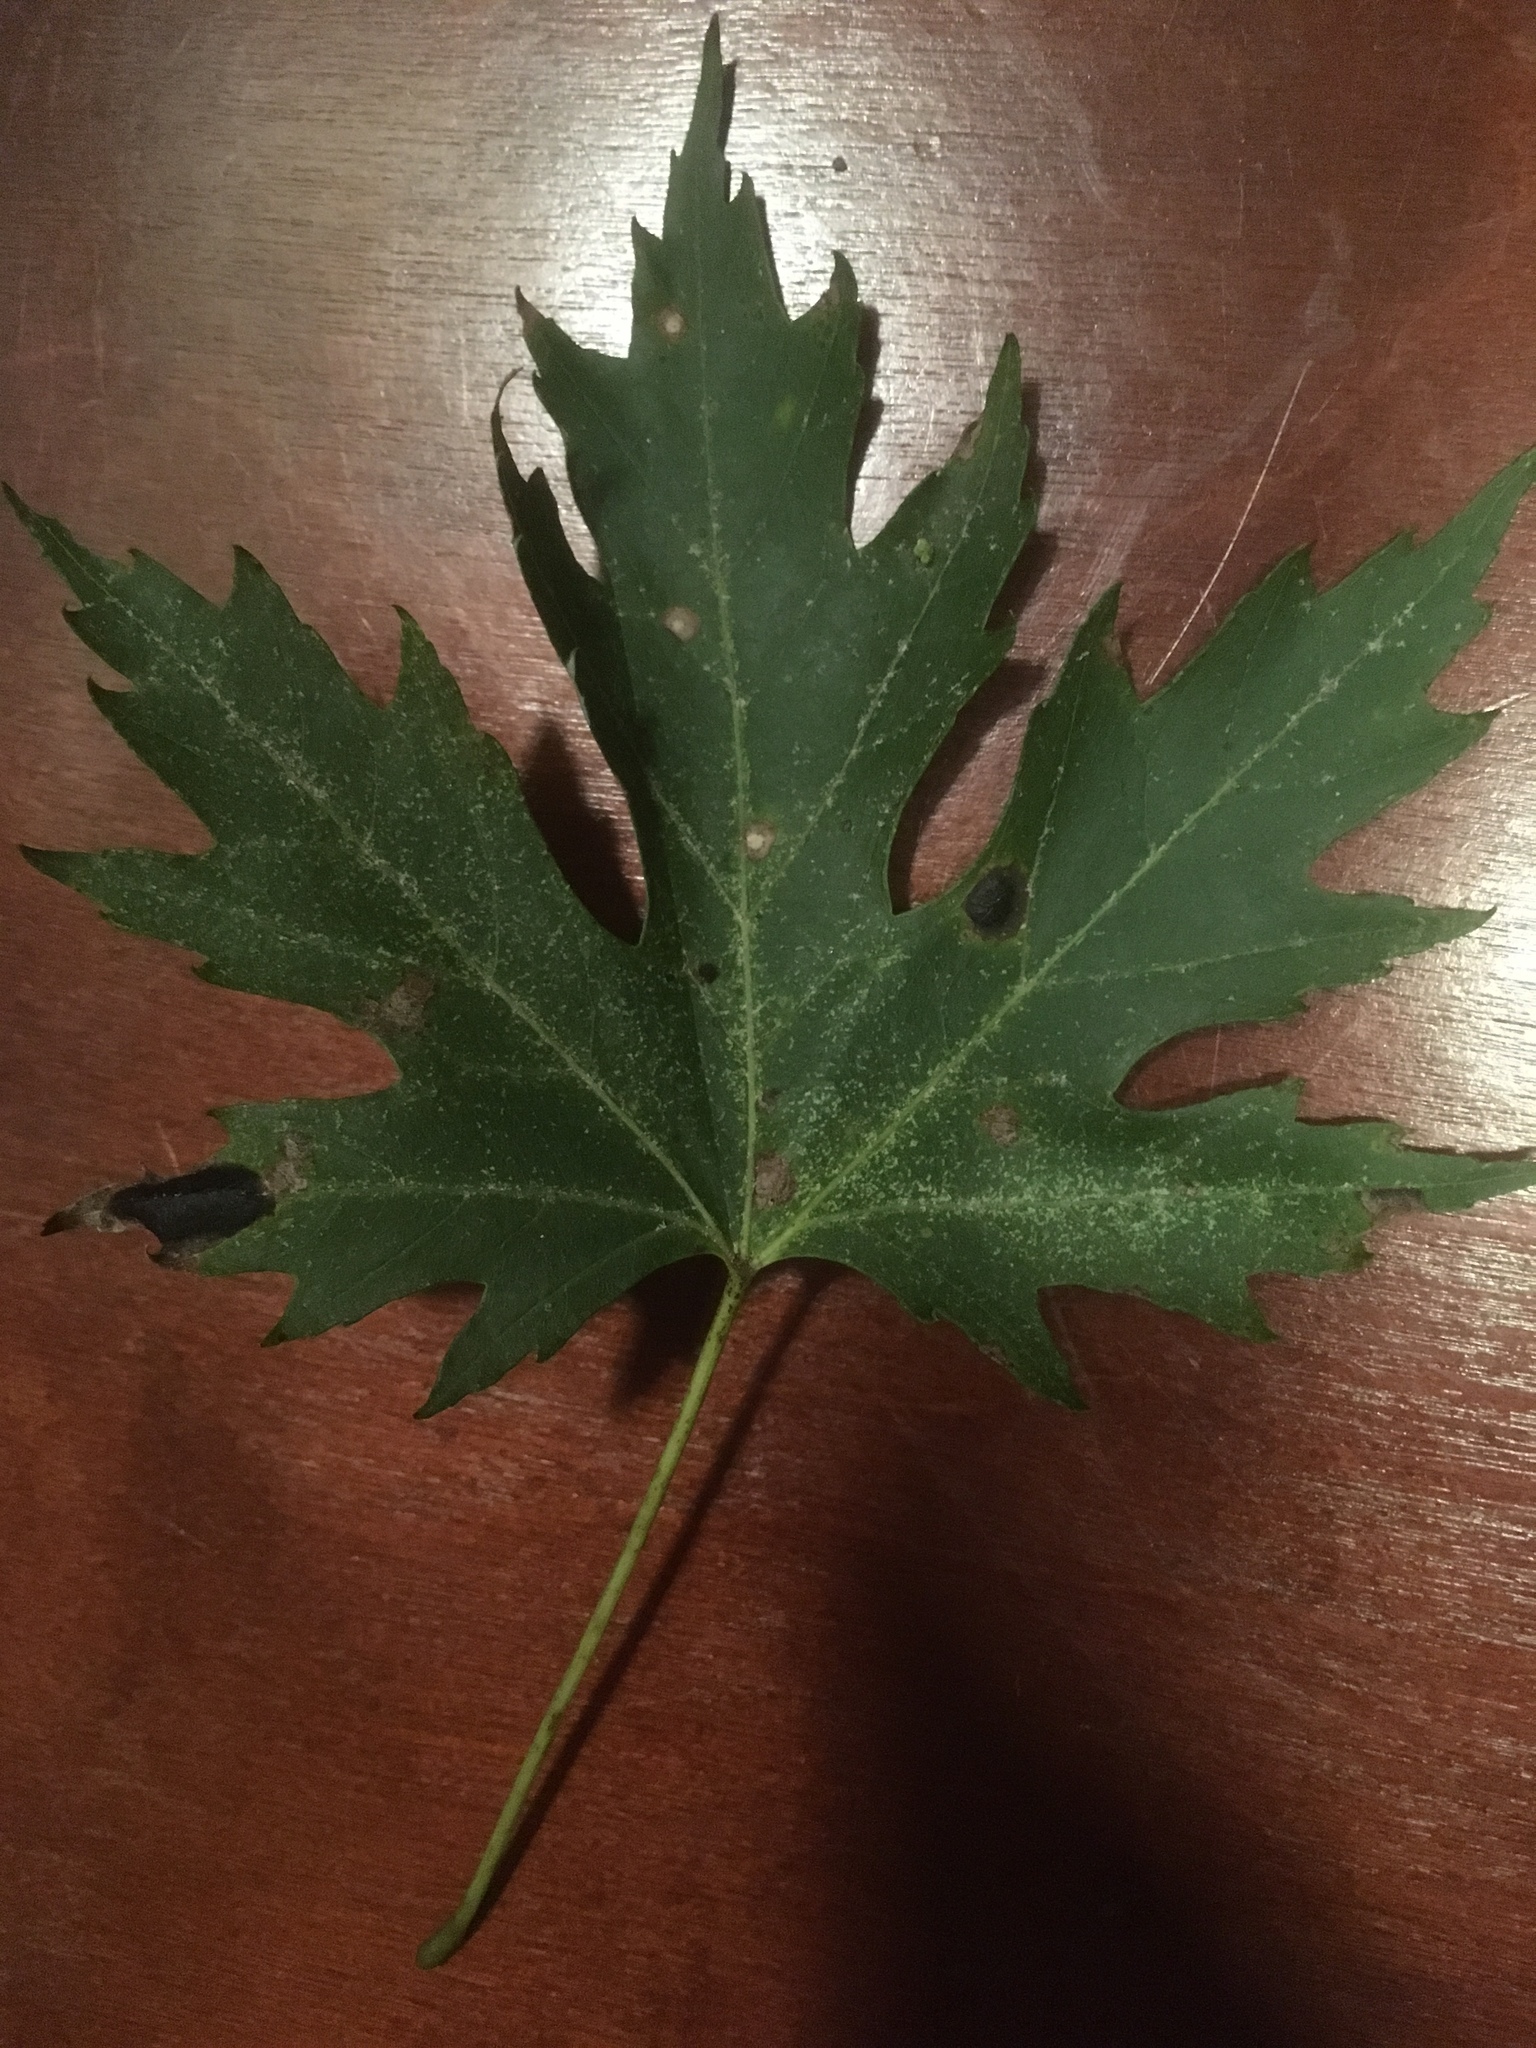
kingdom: Plantae
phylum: Tracheophyta
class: Magnoliopsida
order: Sapindales
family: Sapindaceae
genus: Acer
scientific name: Acer saccharinum
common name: Silver maple
